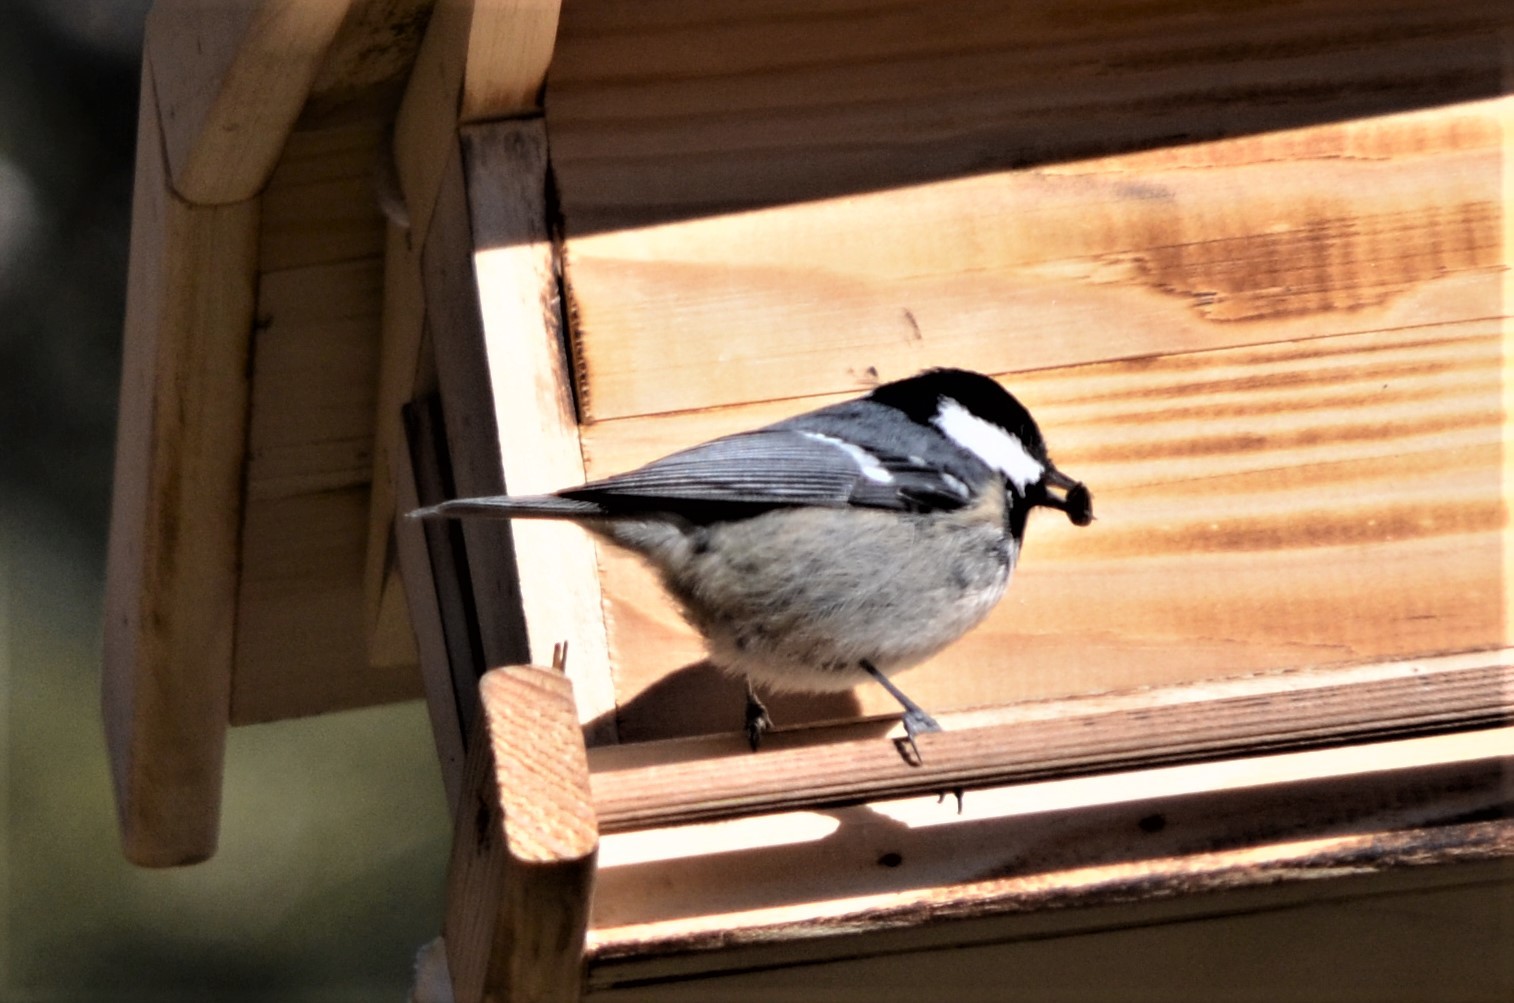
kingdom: Animalia
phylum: Chordata
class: Aves
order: Passeriformes
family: Paridae
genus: Periparus
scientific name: Periparus ater
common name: Coal tit
